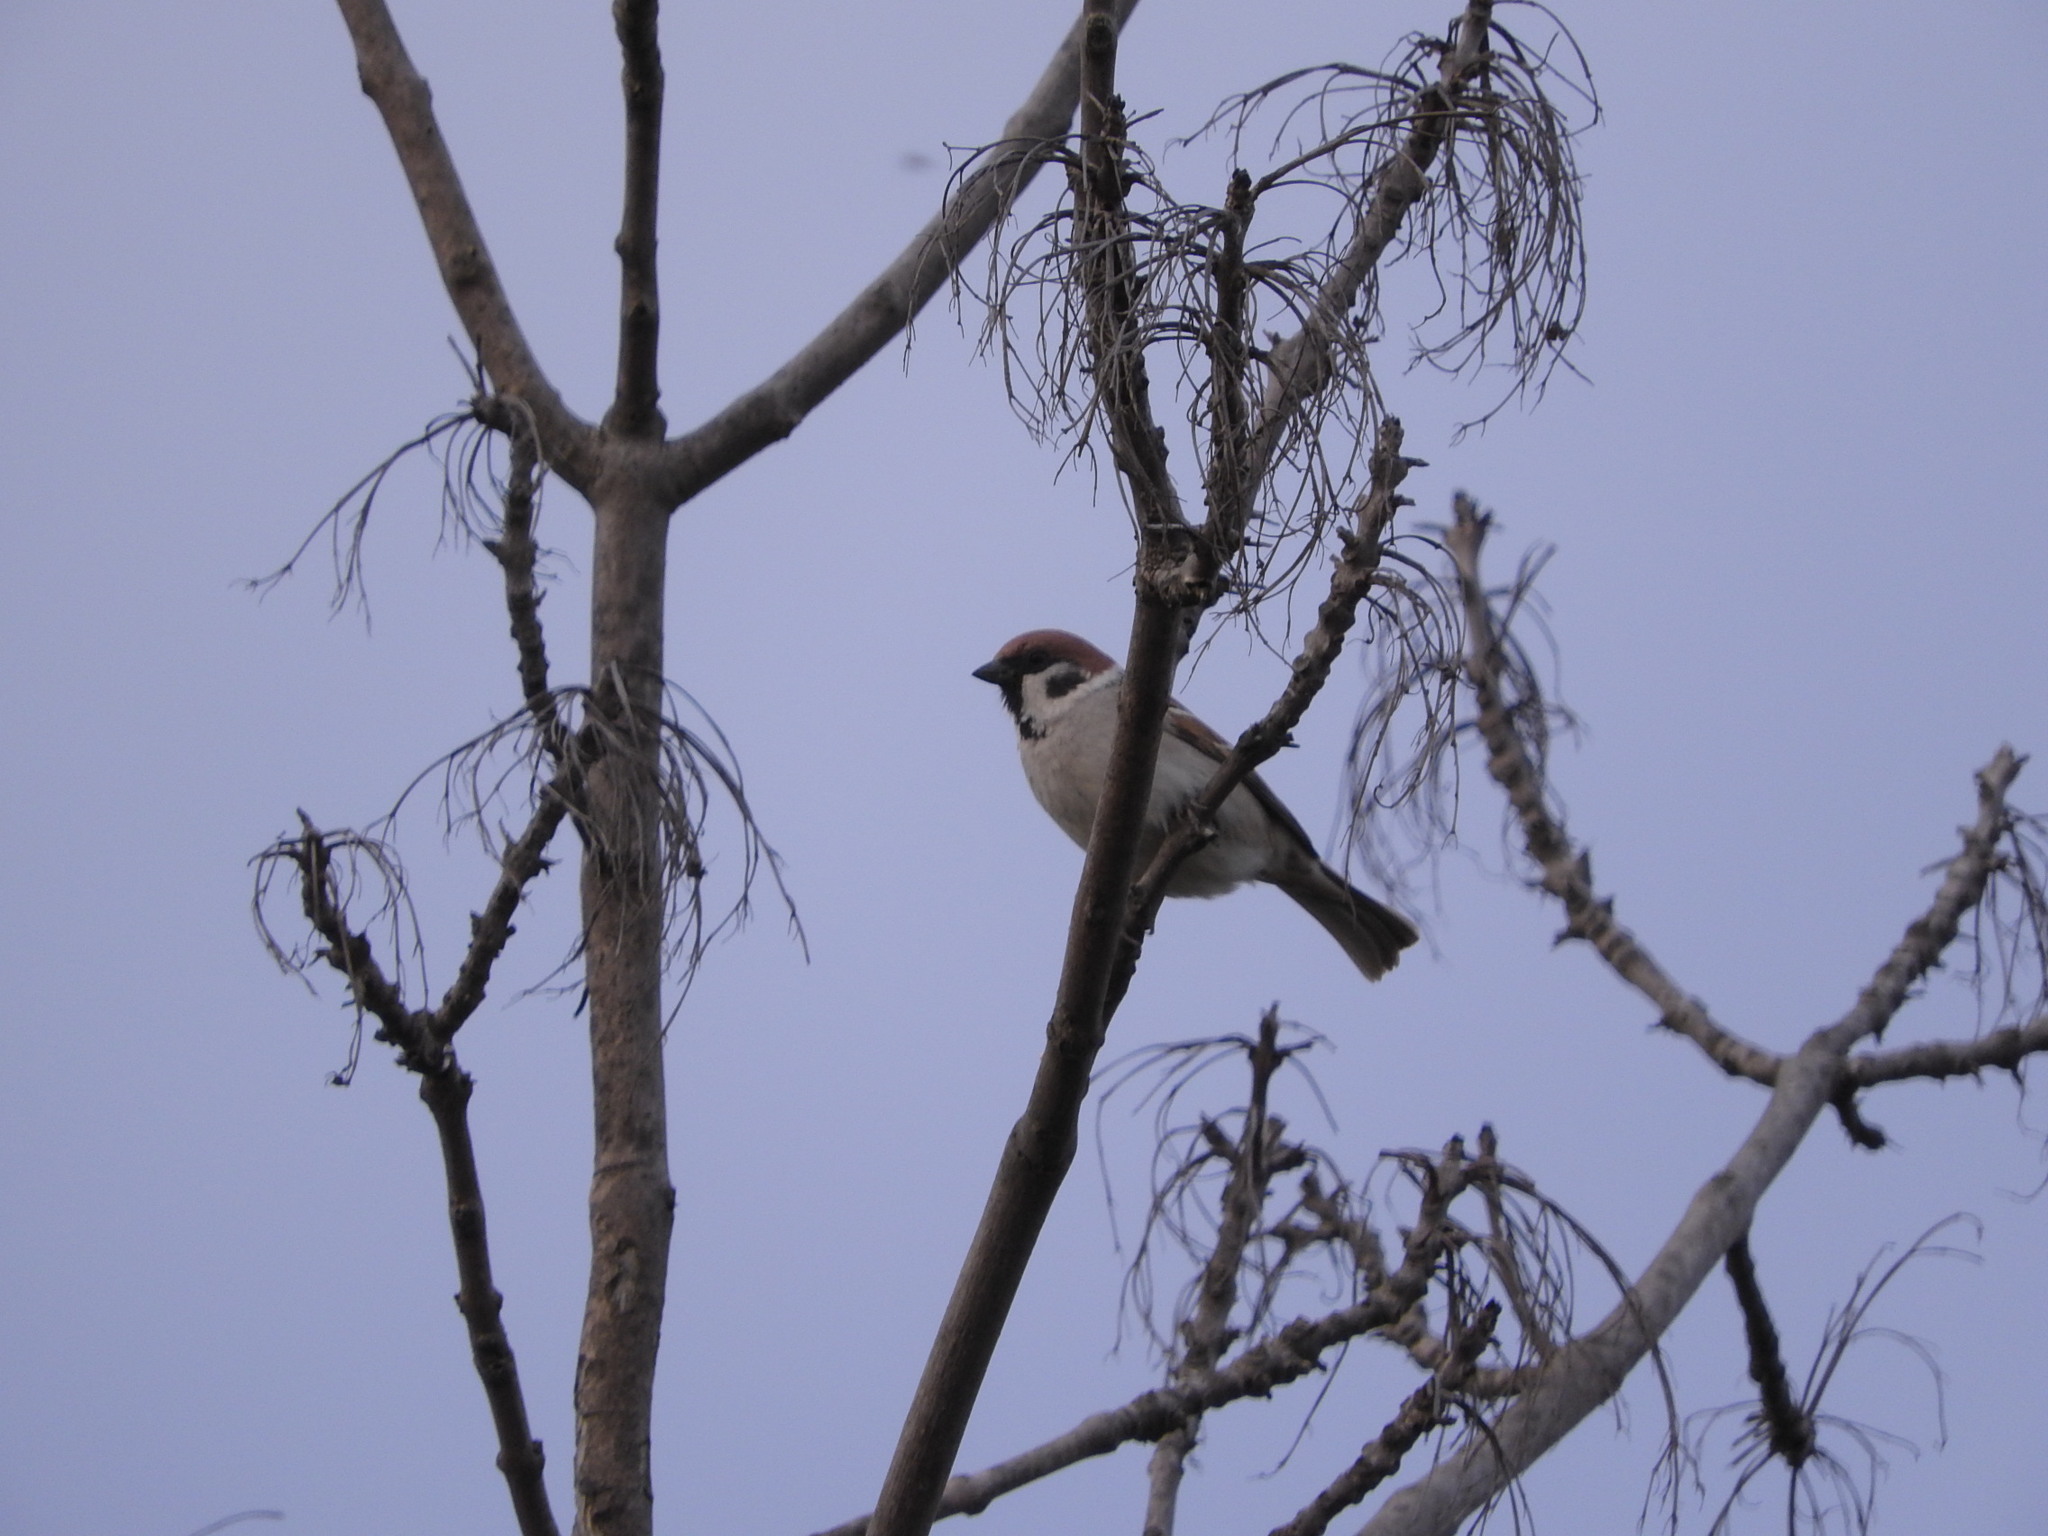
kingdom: Animalia
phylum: Chordata
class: Aves
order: Passeriformes
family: Passeridae
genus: Passer
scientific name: Passer montanus
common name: Eurasian tree sparrow
